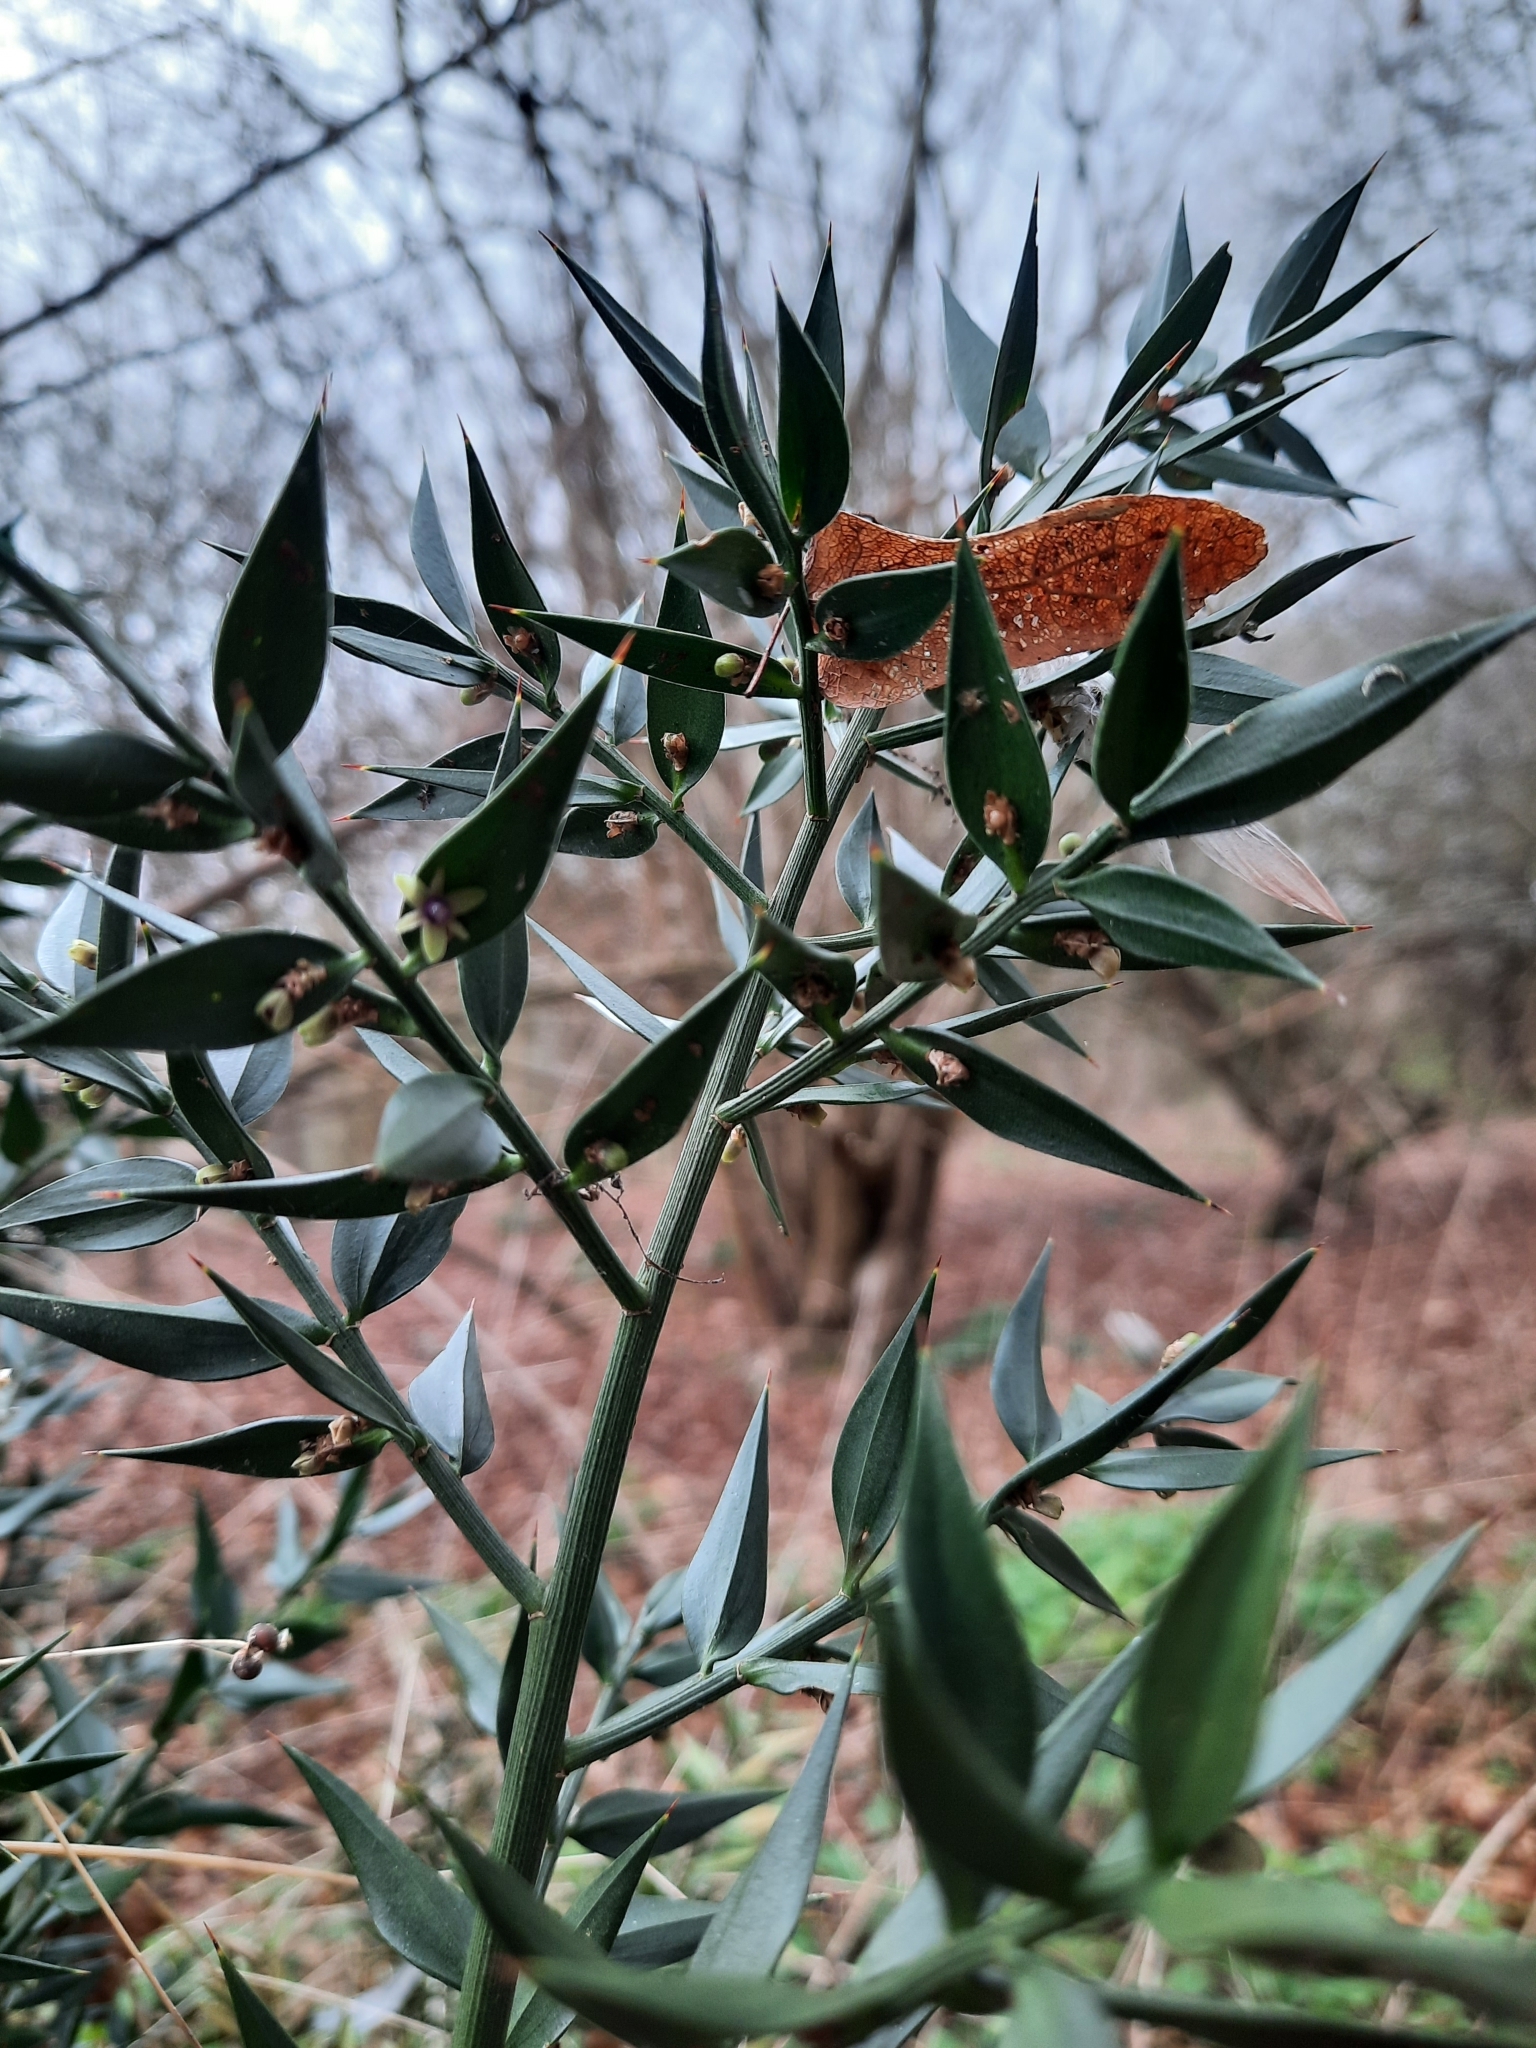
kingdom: Plantae
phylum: Tracheophyta
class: Liliopsida
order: Asparagales
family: Asparagaceae
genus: Ruscus
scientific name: Ruscus aculeatus
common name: Butcher's-broom
